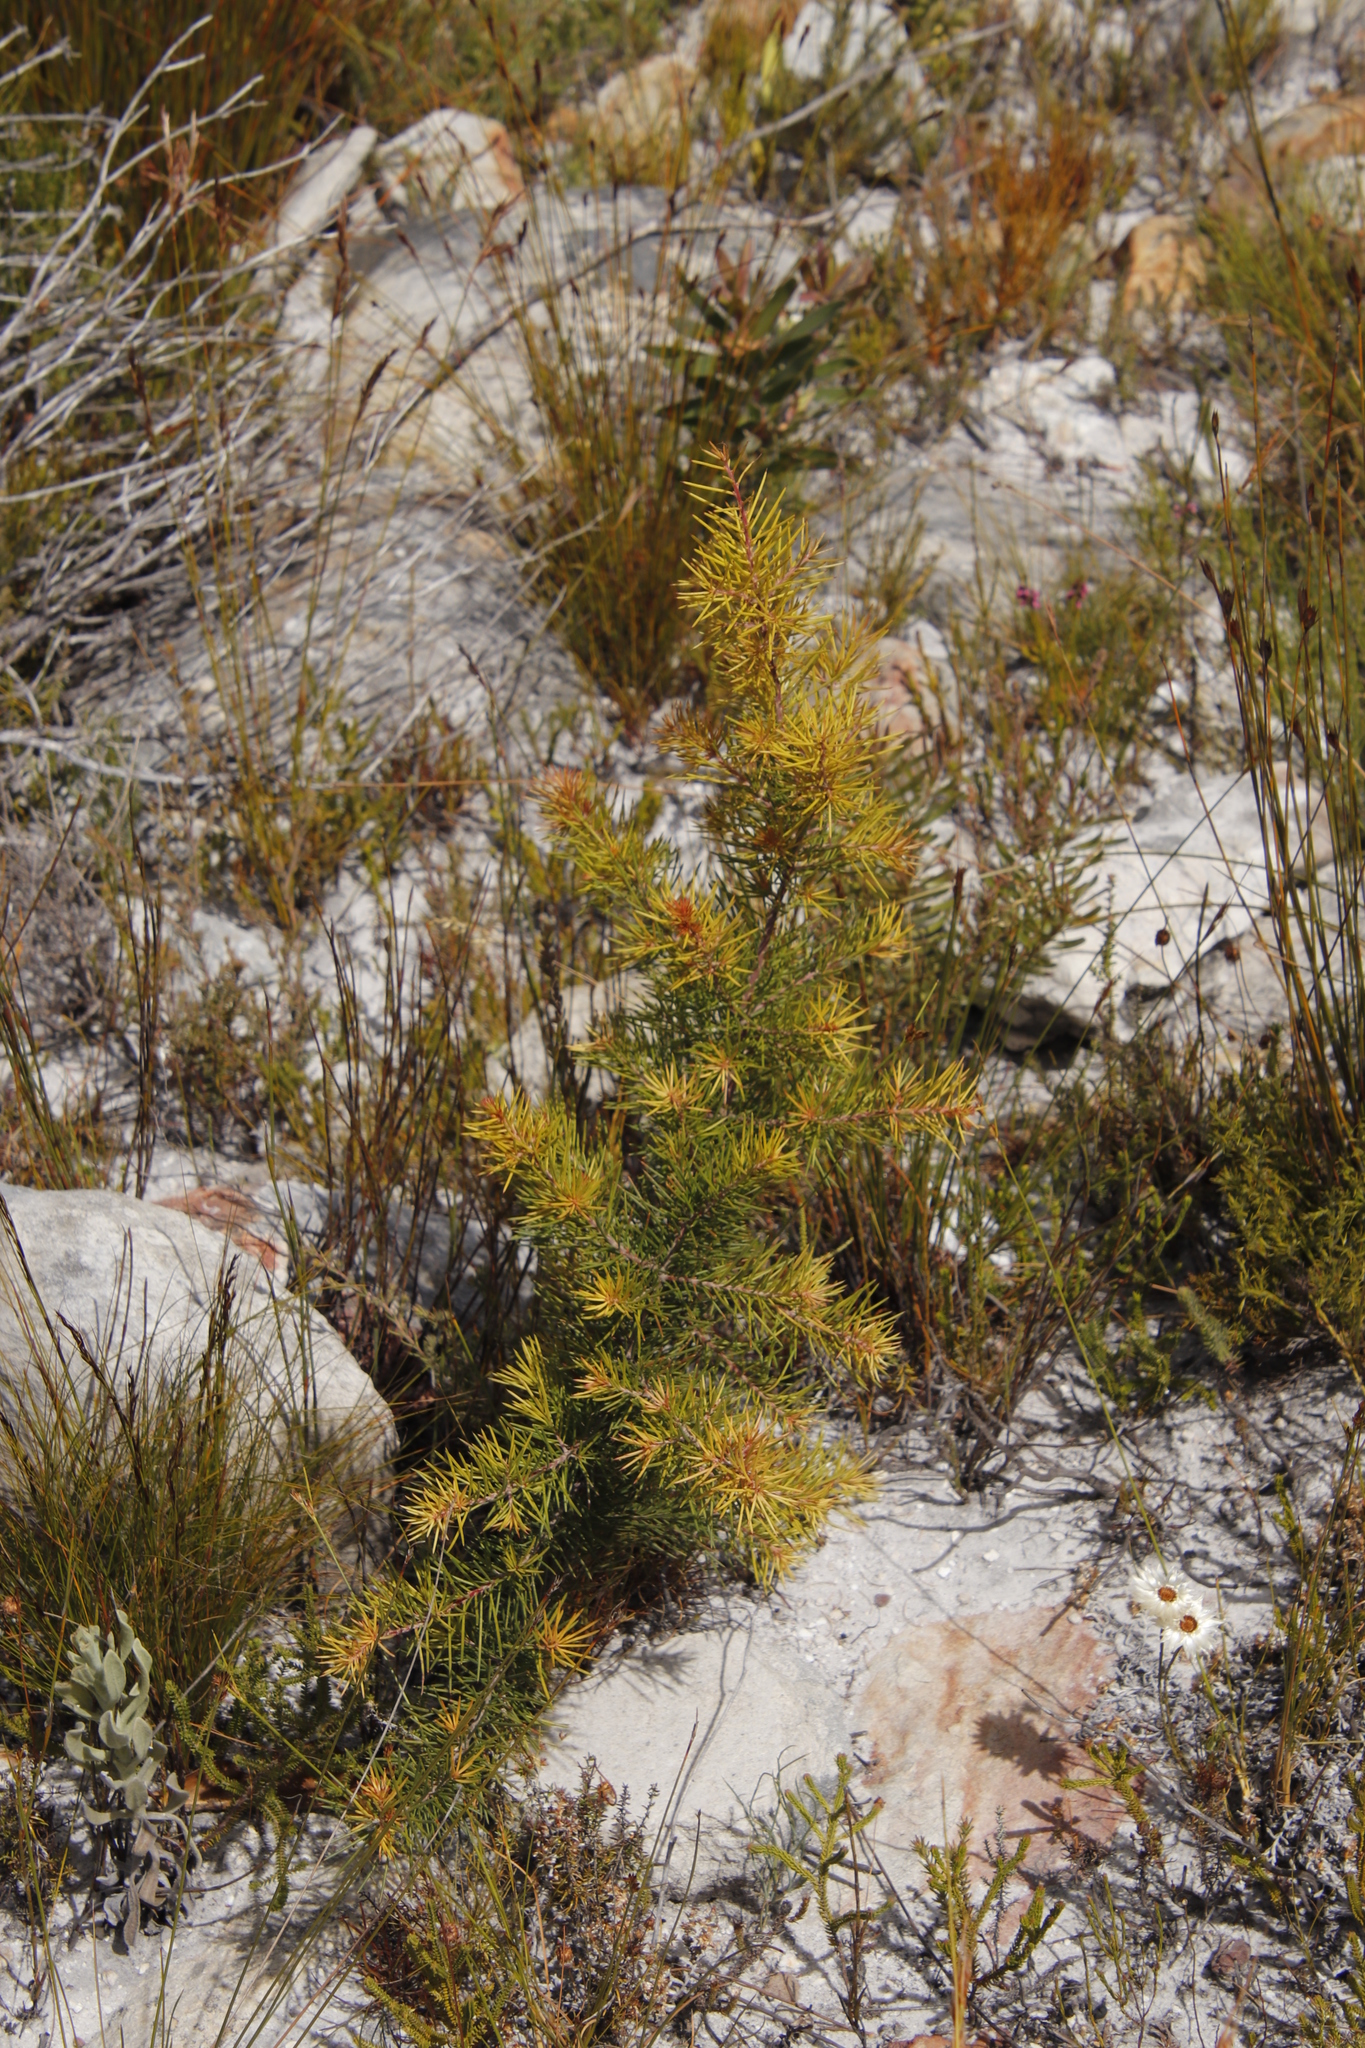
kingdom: Plantae
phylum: Tracheophyta
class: Magnoliopsida
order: Proteales
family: Proteaceae
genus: Hakea
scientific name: Hakea sericea
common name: Needle bush
